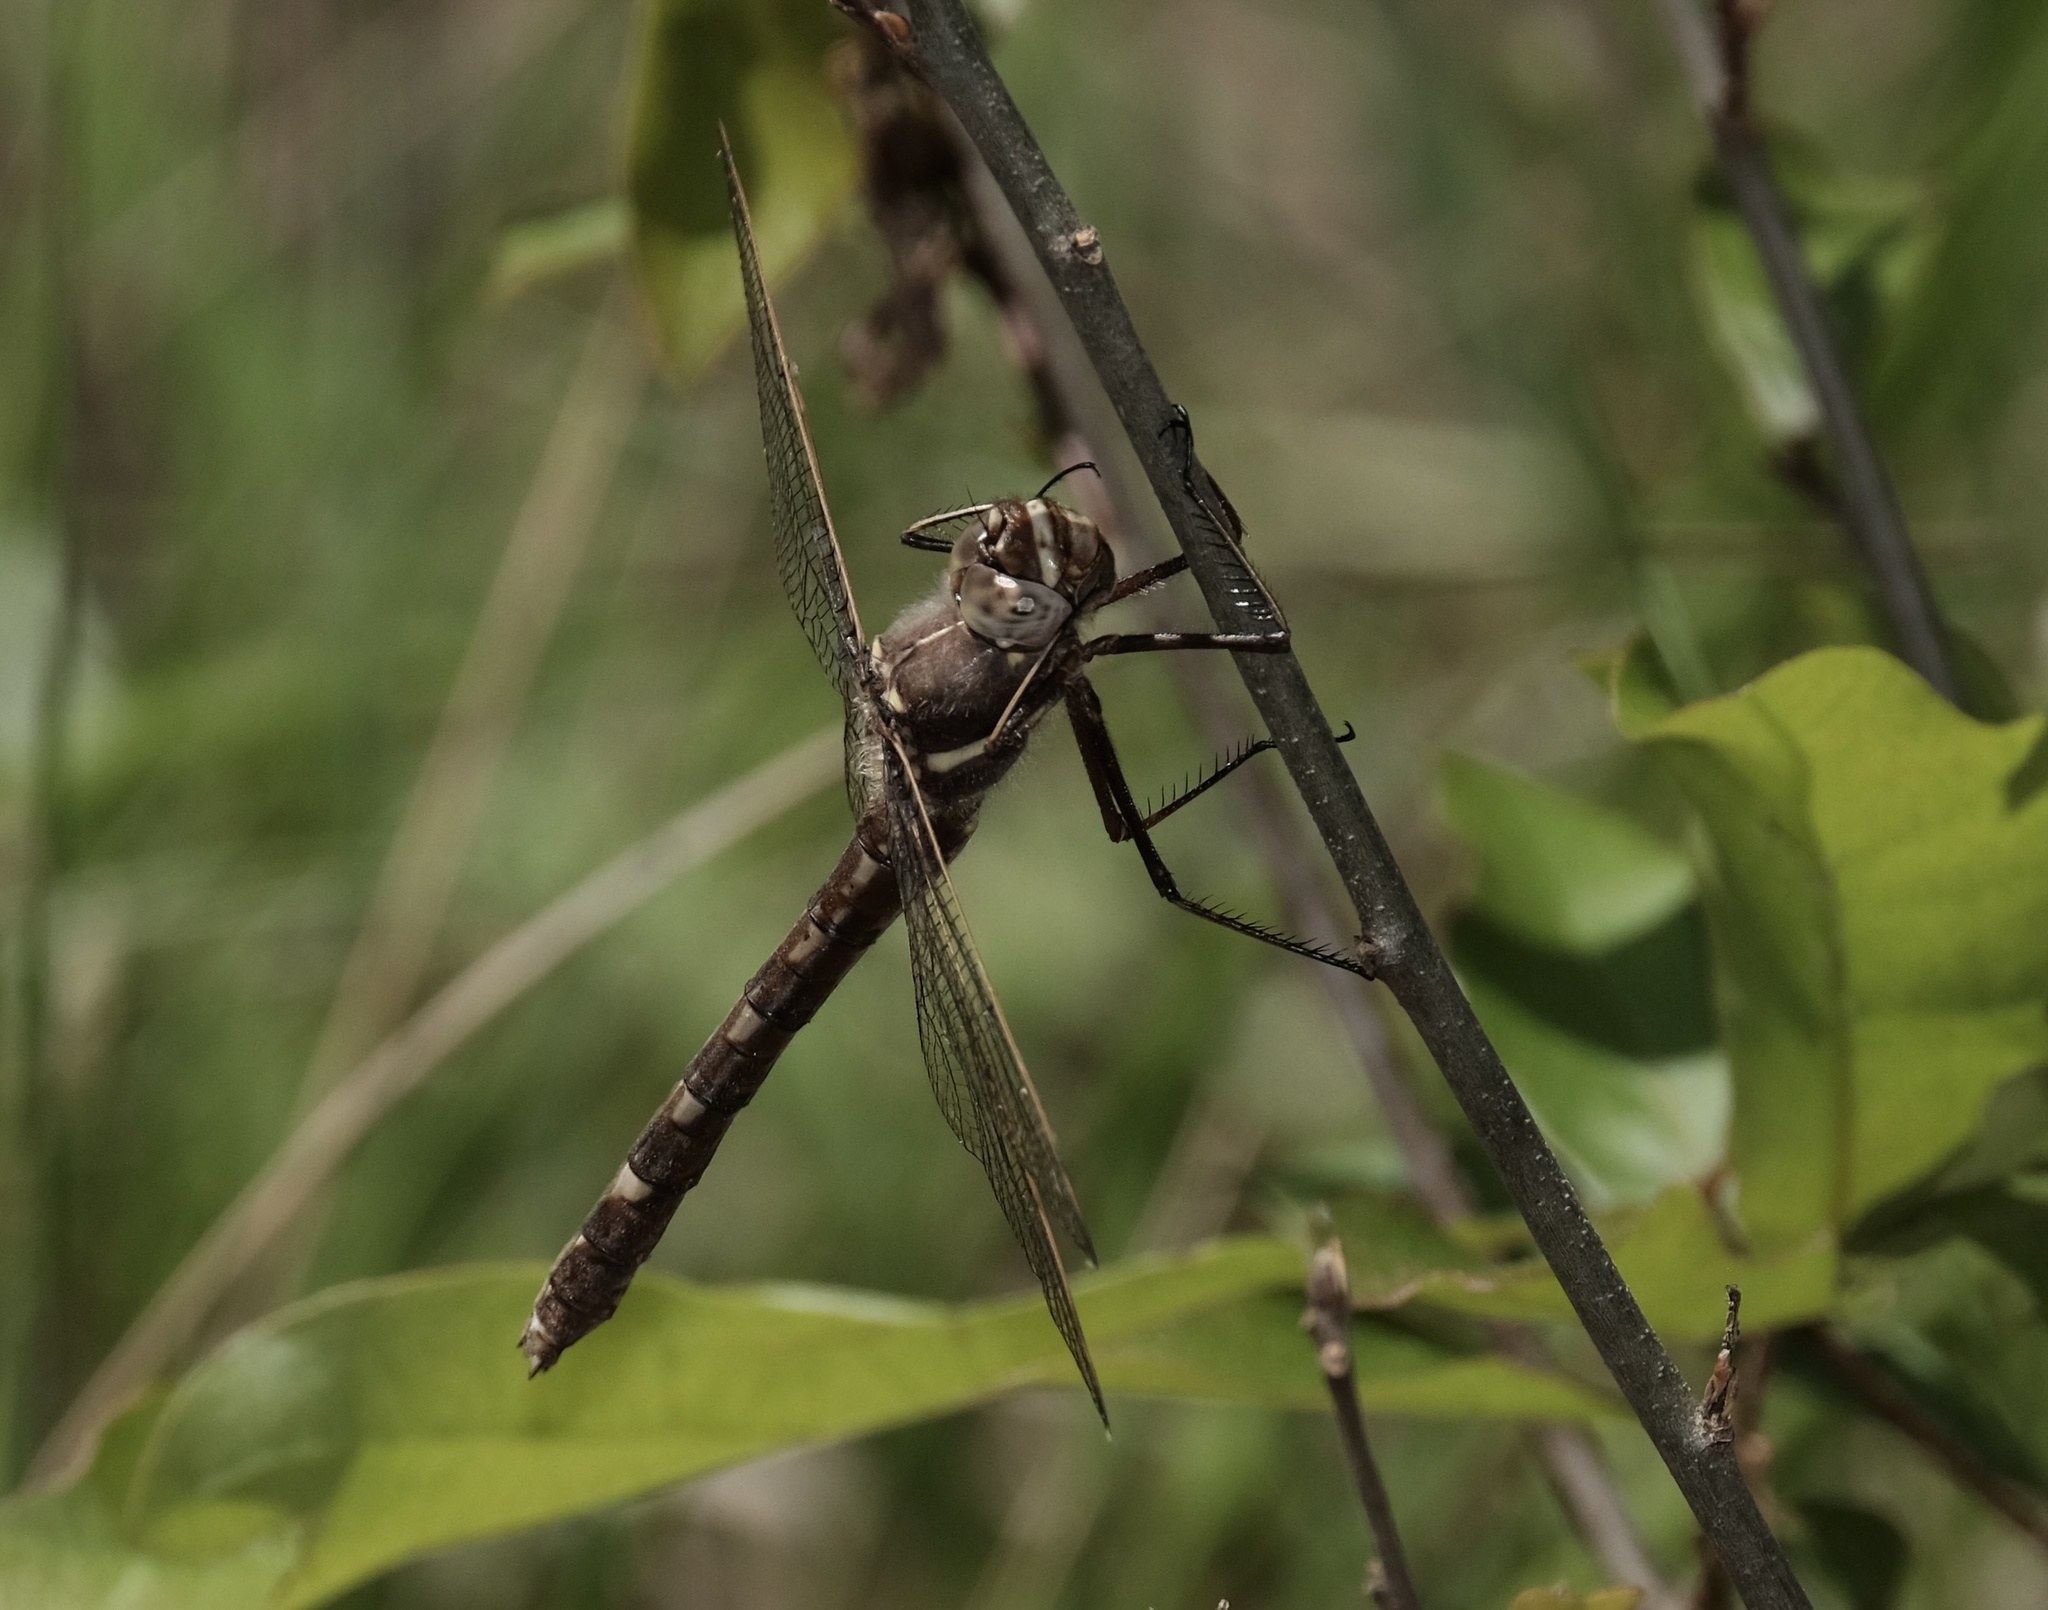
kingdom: Animalia
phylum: Arthropoda
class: Insecta
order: Odonata
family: Macromiidae
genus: Didymops
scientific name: Didymops transversa
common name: Stream cruiser
